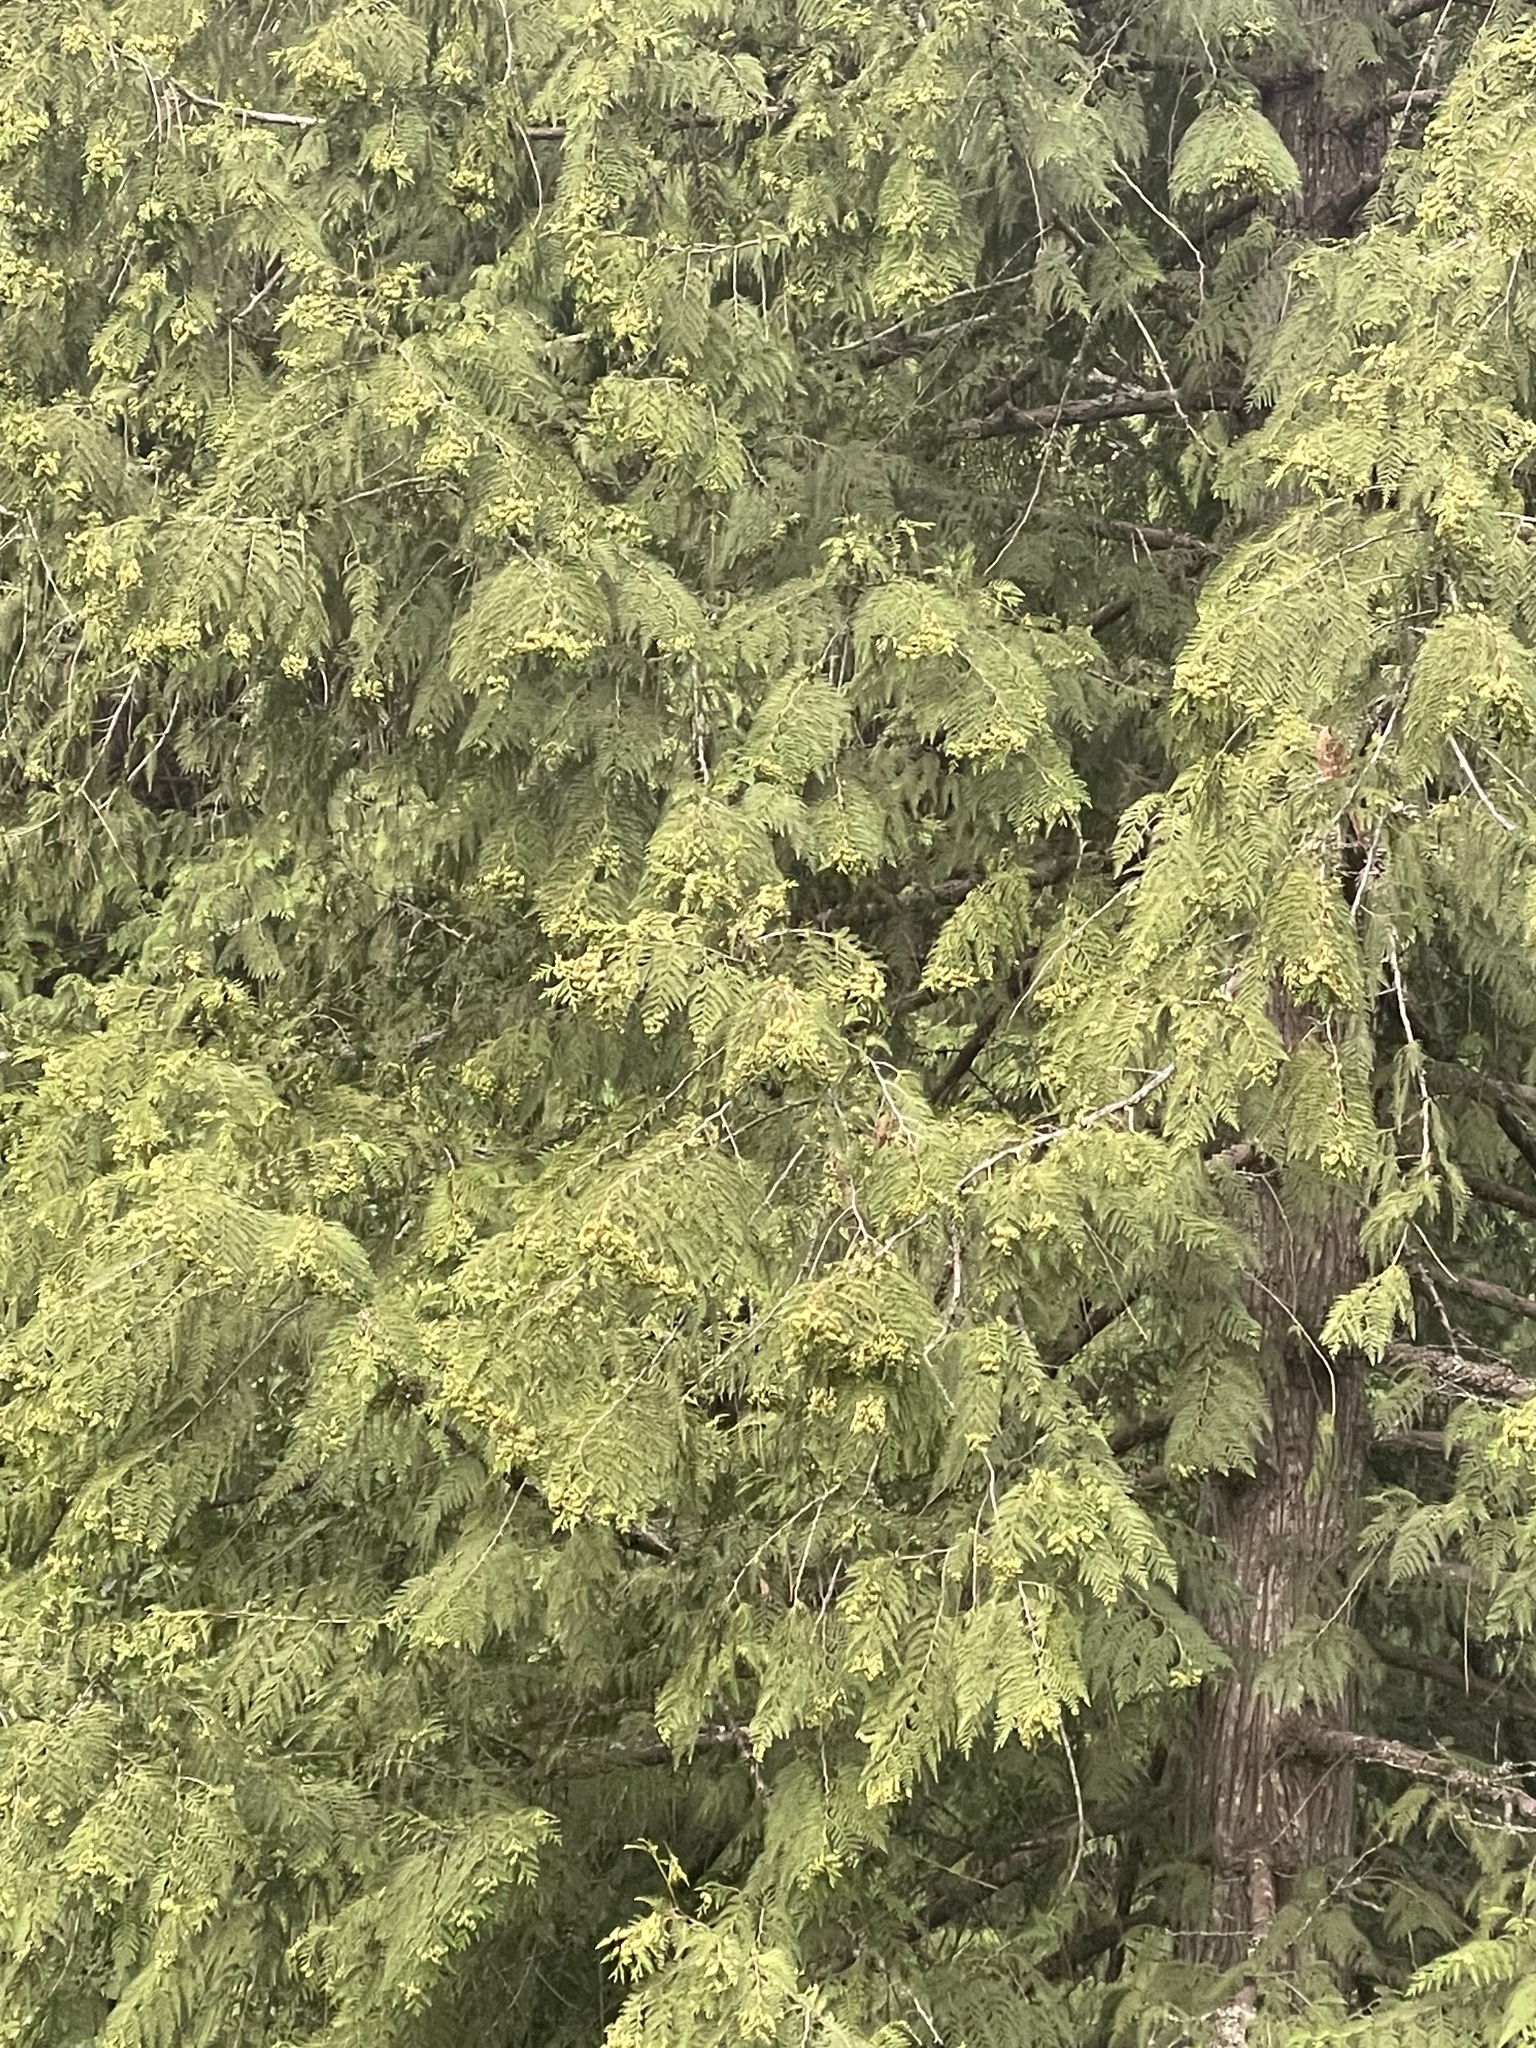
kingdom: Plantae
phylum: Tracheophyta
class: Pinopsida
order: Pinales
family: Cupressaceae
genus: Thuja
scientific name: Thuja plicata
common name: Western red-cedar
